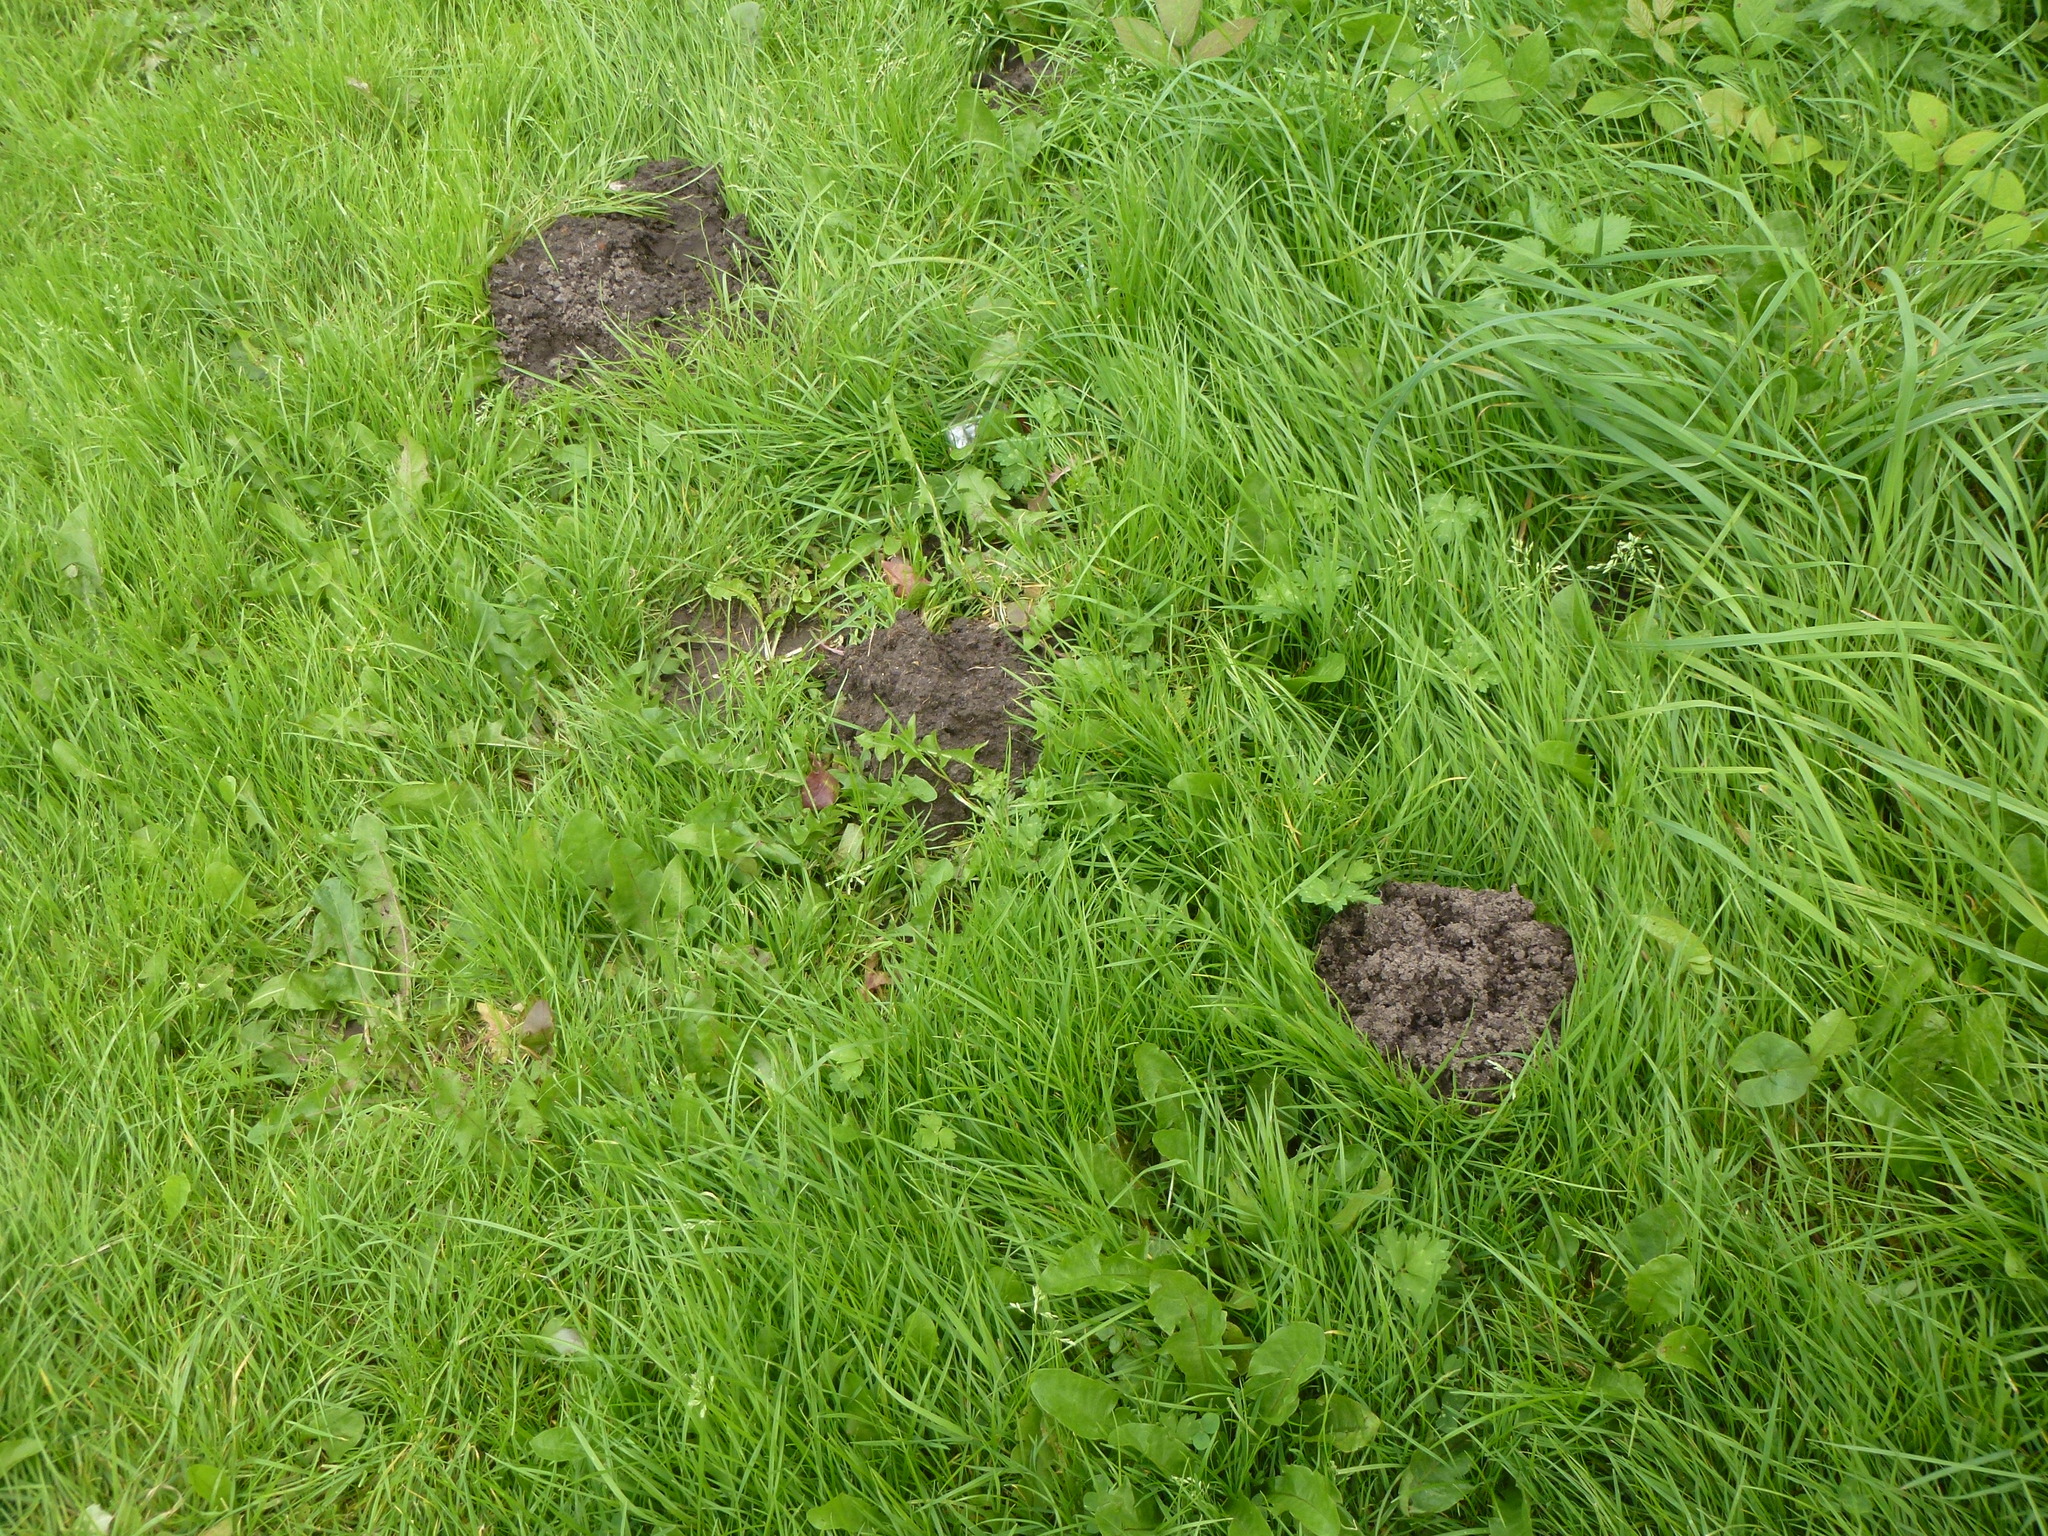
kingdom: Animalia
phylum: Chordata
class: Mammalia
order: Soricomorpha
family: Talpidae
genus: Talpa
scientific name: Talpa europaea
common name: European mole
